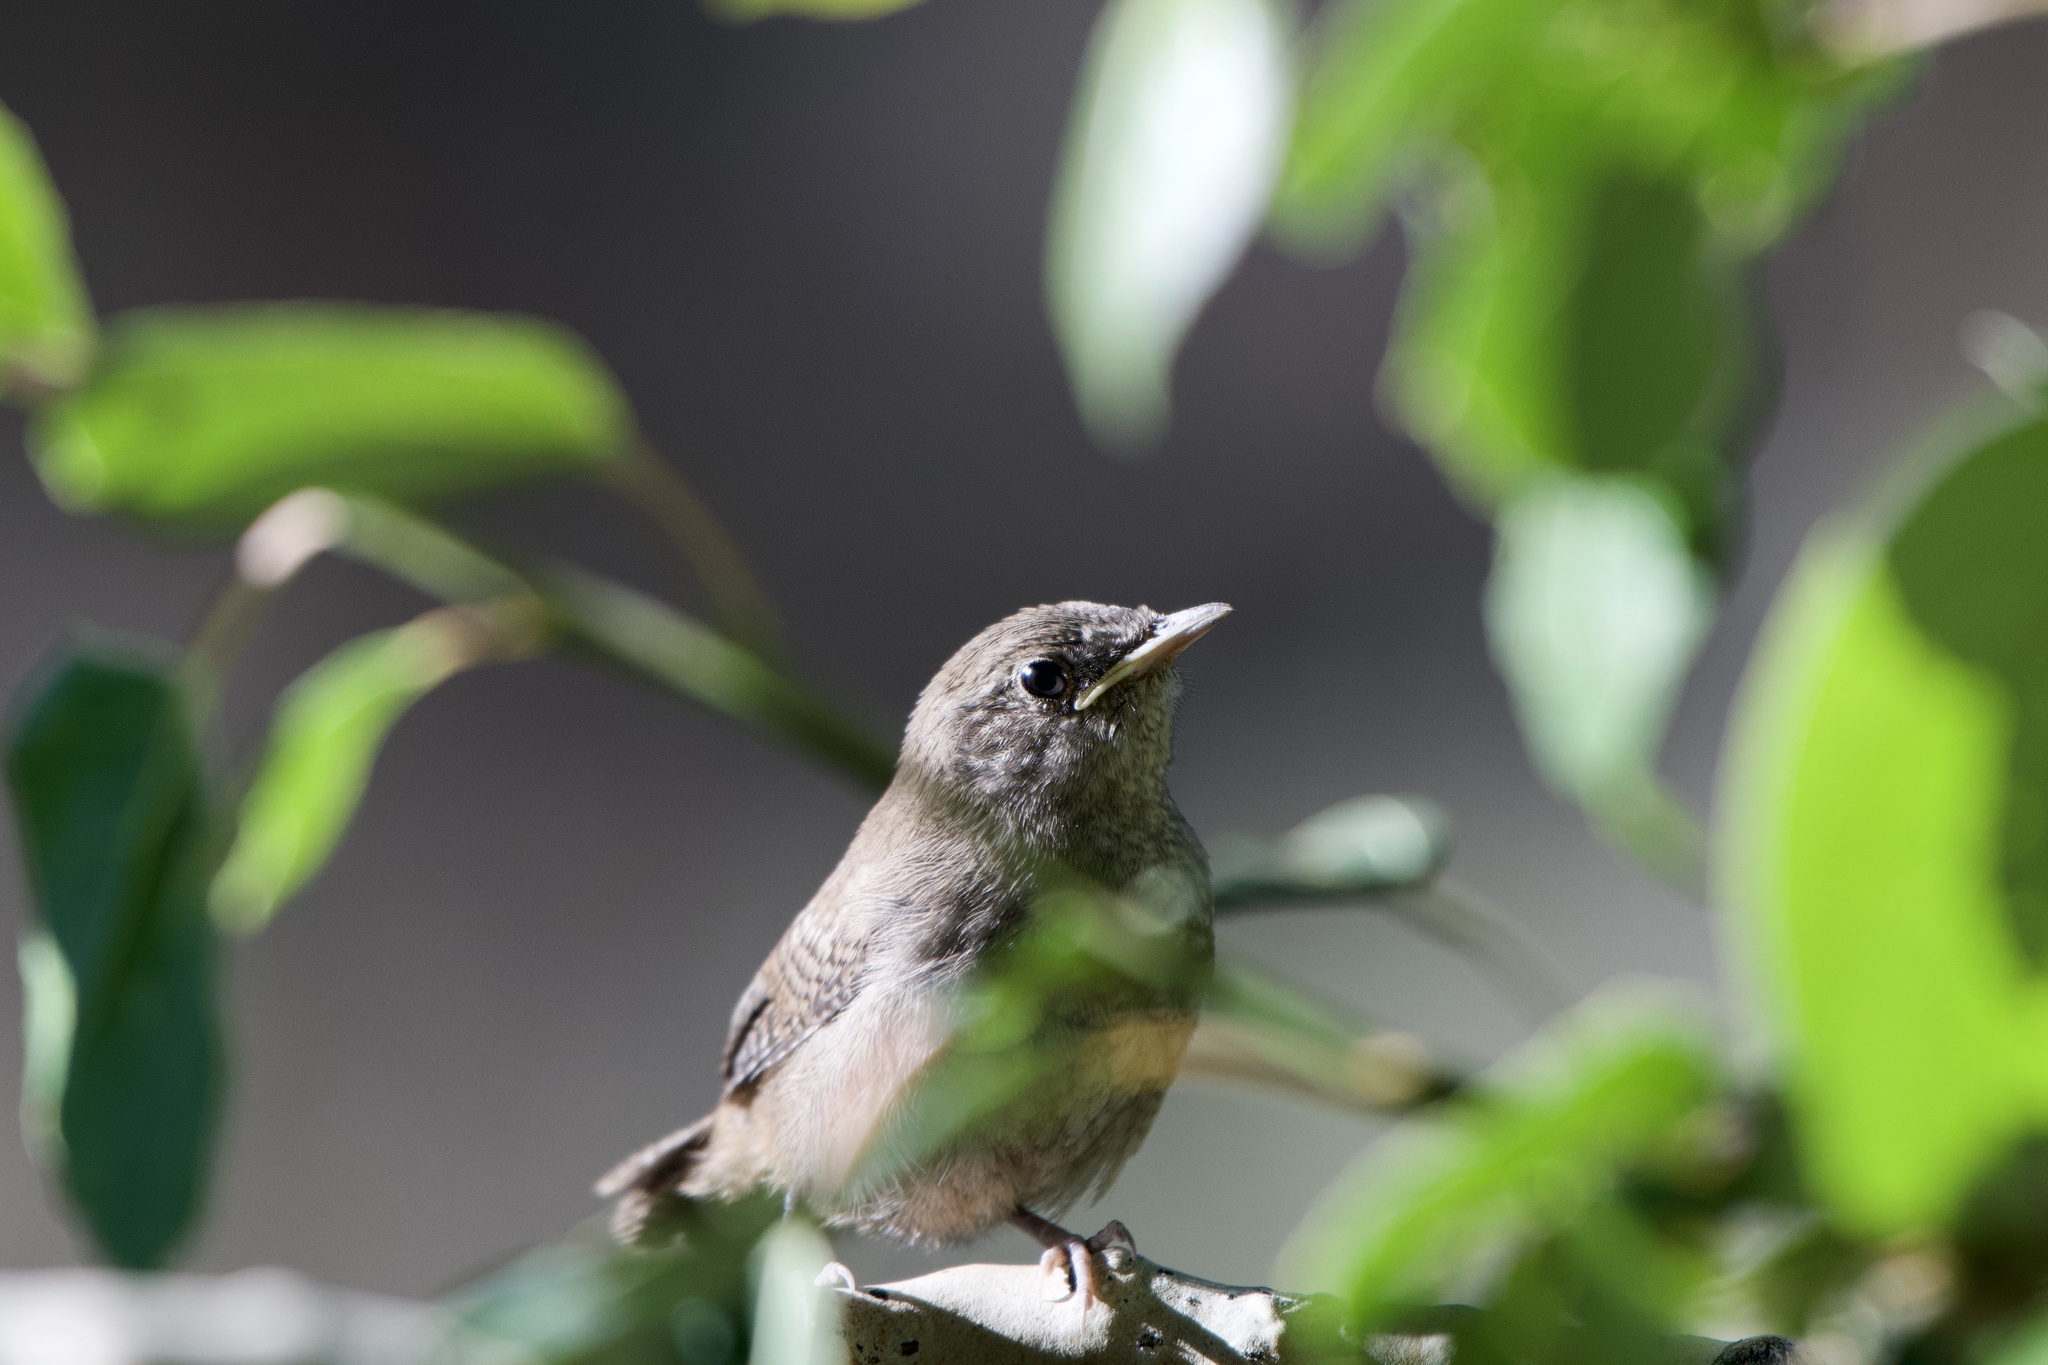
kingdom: Animalia
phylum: Chordata
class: Aves
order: Passeriformes
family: Troglodytidae
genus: Troglodytes
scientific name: Troglodytes aedon
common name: House wren
